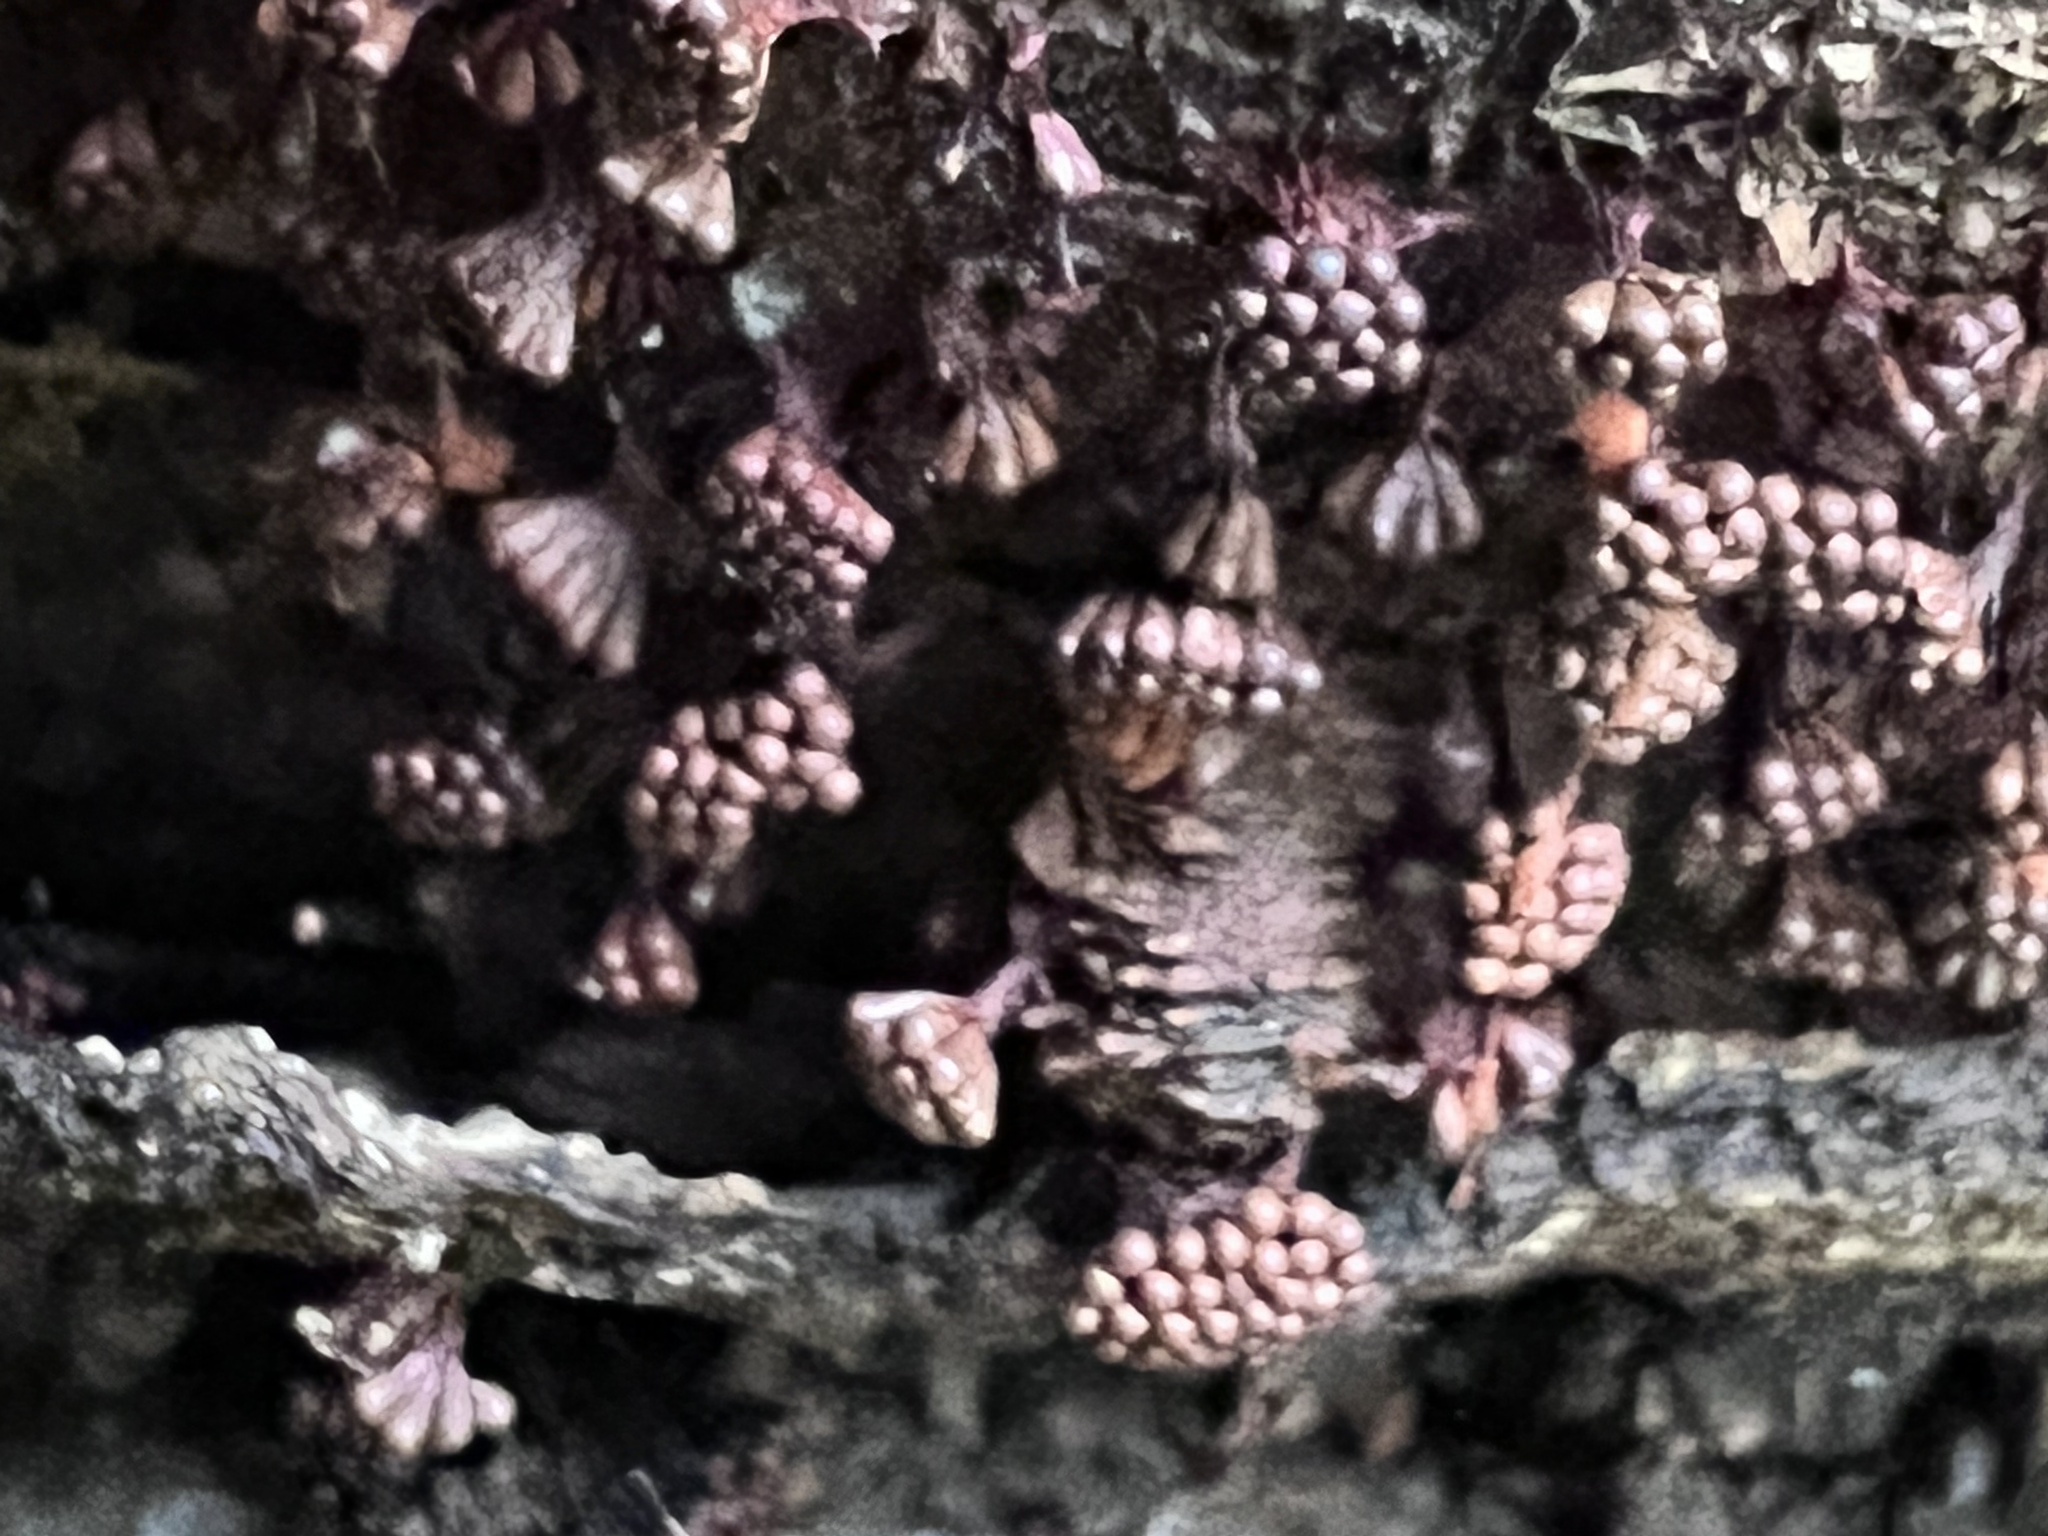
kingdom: Protozoa
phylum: Mycetozoa
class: Myxomycetes
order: Trichiales
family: Trichiaceae
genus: Metatrichia
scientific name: Metatrichia vesparia
